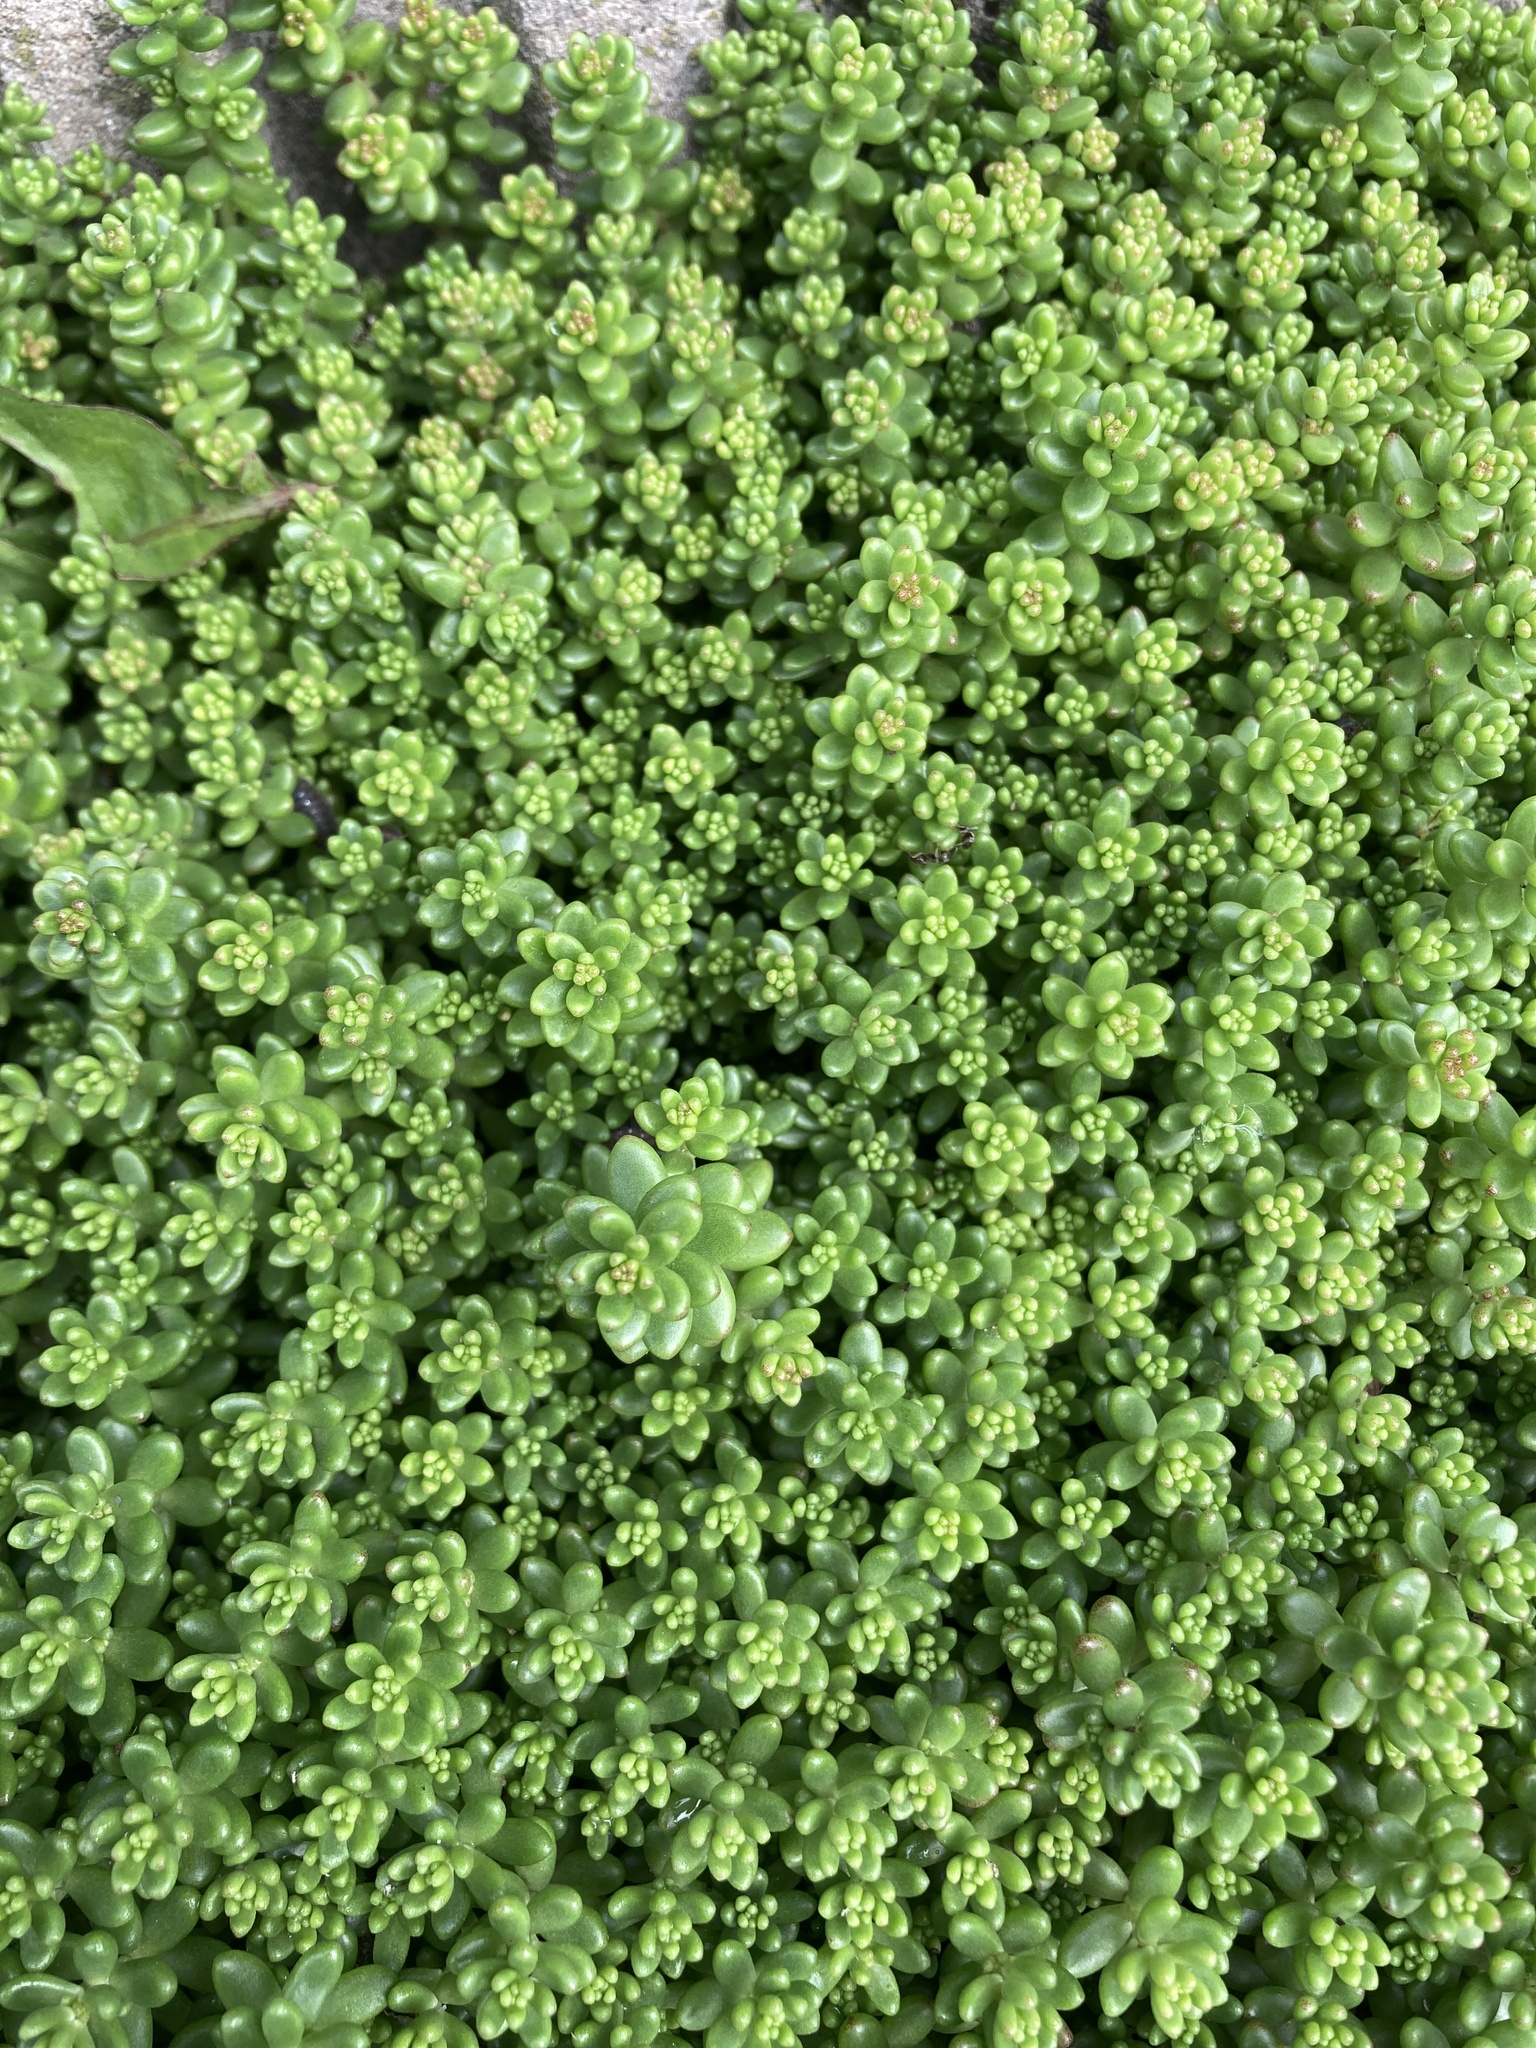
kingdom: Plantae
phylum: Tracheophyta
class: Magnoliopsida
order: Saxifragales
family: Crassulaceae
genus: Sedum
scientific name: Sedum album
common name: White stonecrop
